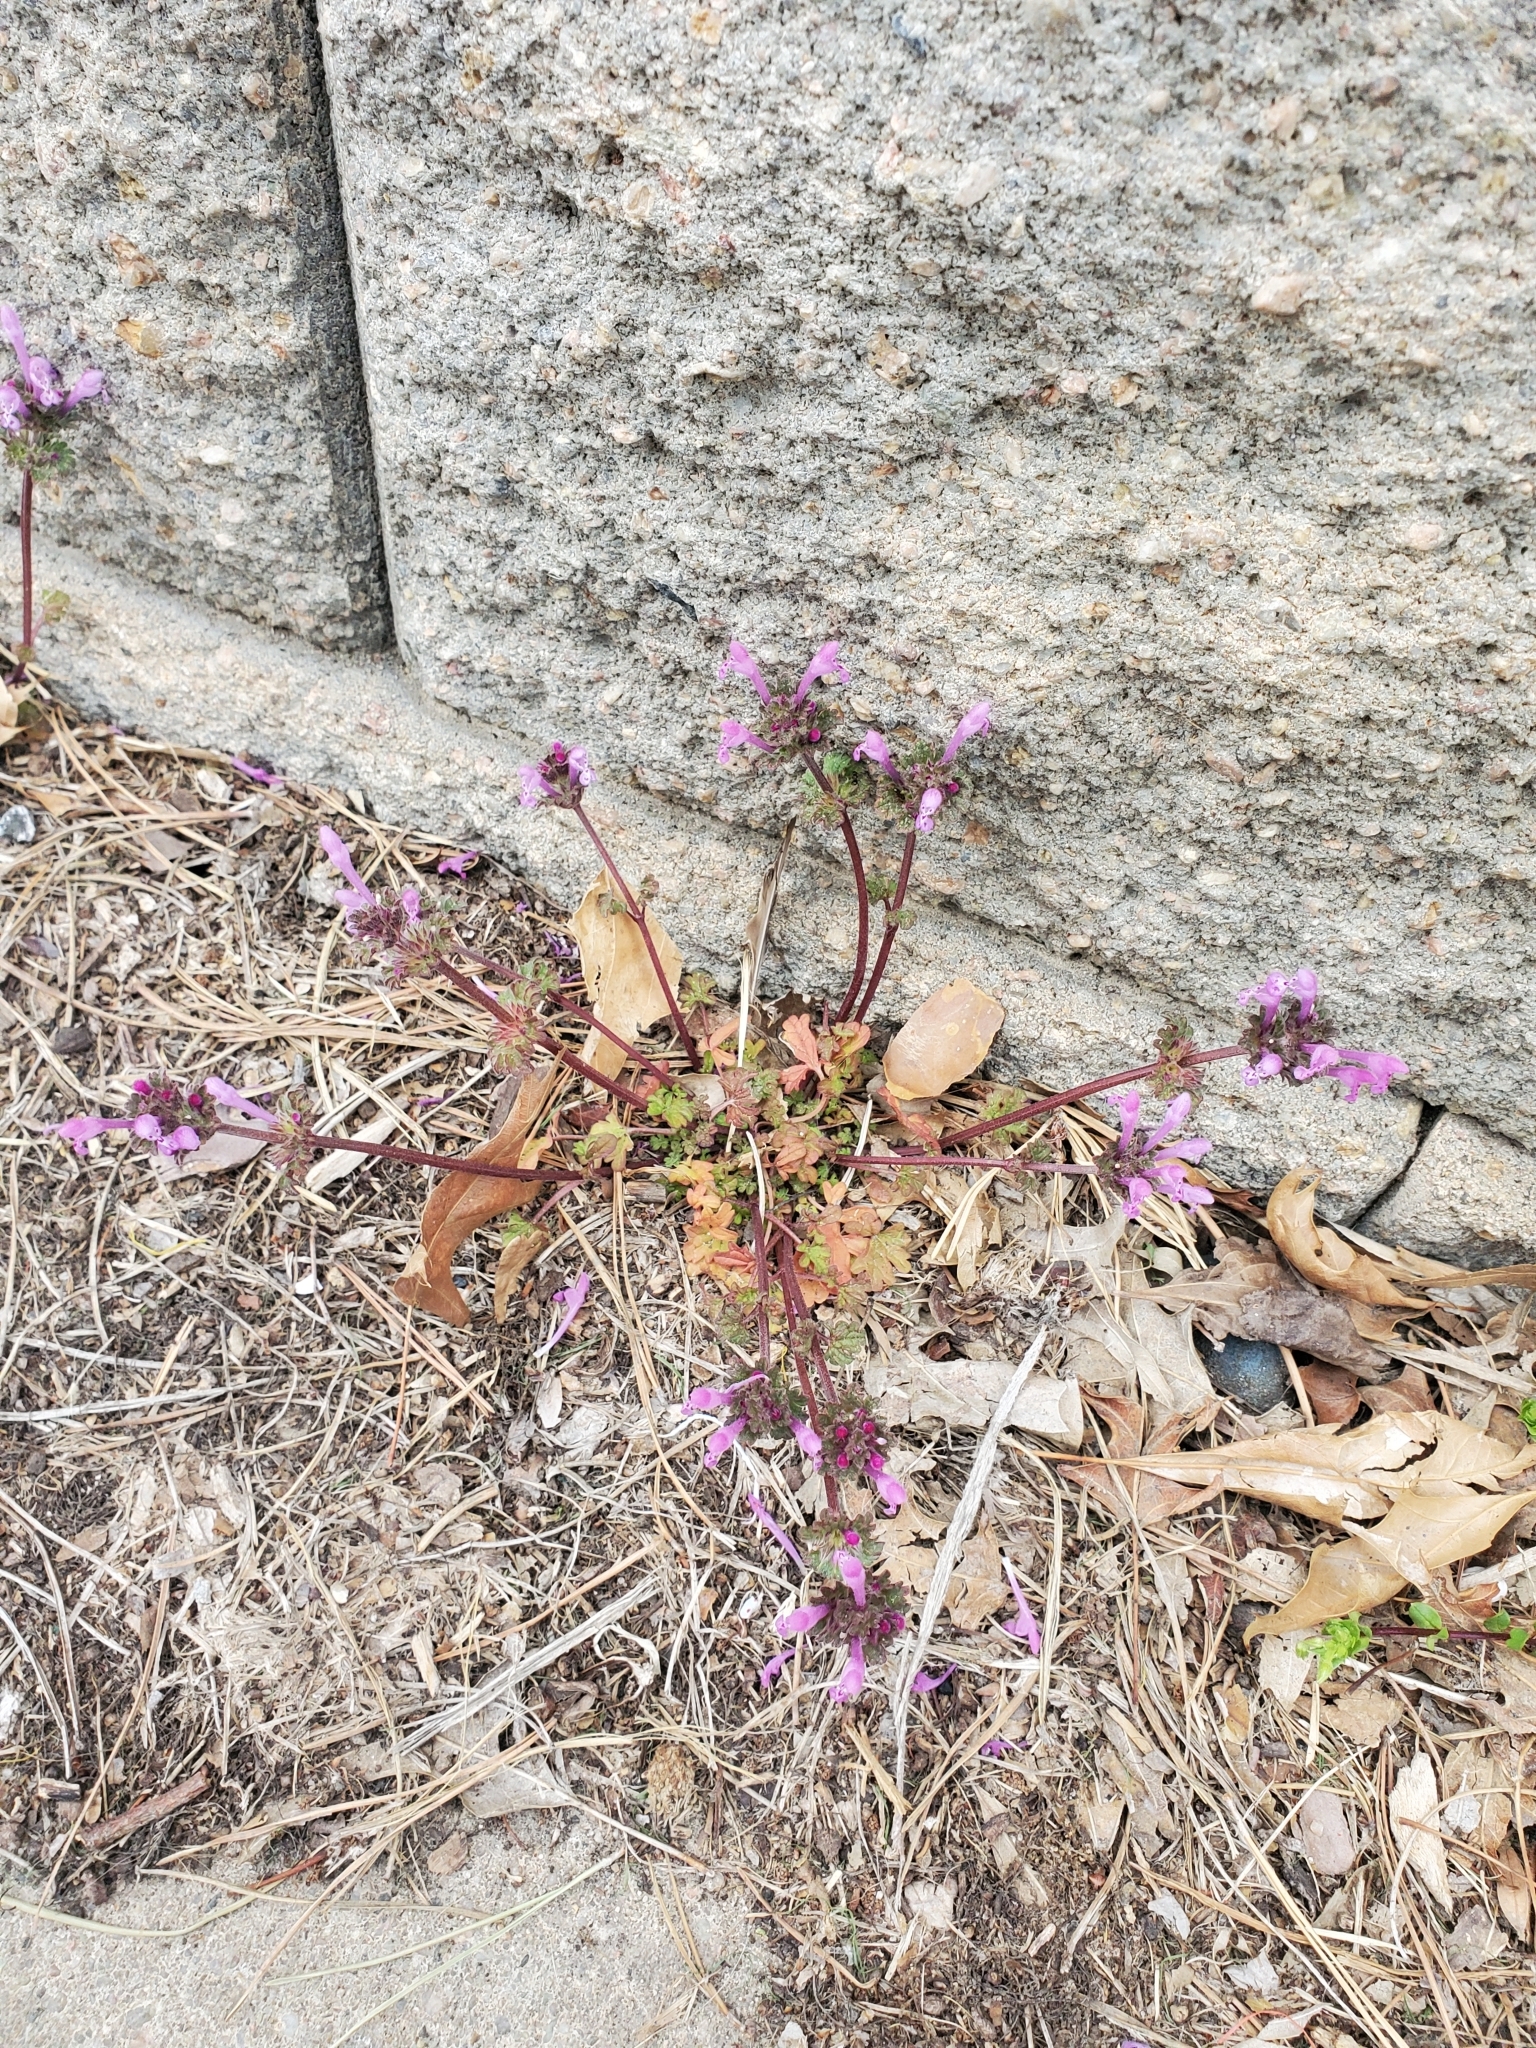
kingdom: Plantae
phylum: Tracheophyta
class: Magnoliopsida
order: Lamiales
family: Lamiaceae
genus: Lamium
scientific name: Lamium amplexicaule
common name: Henbit dead-nettle
